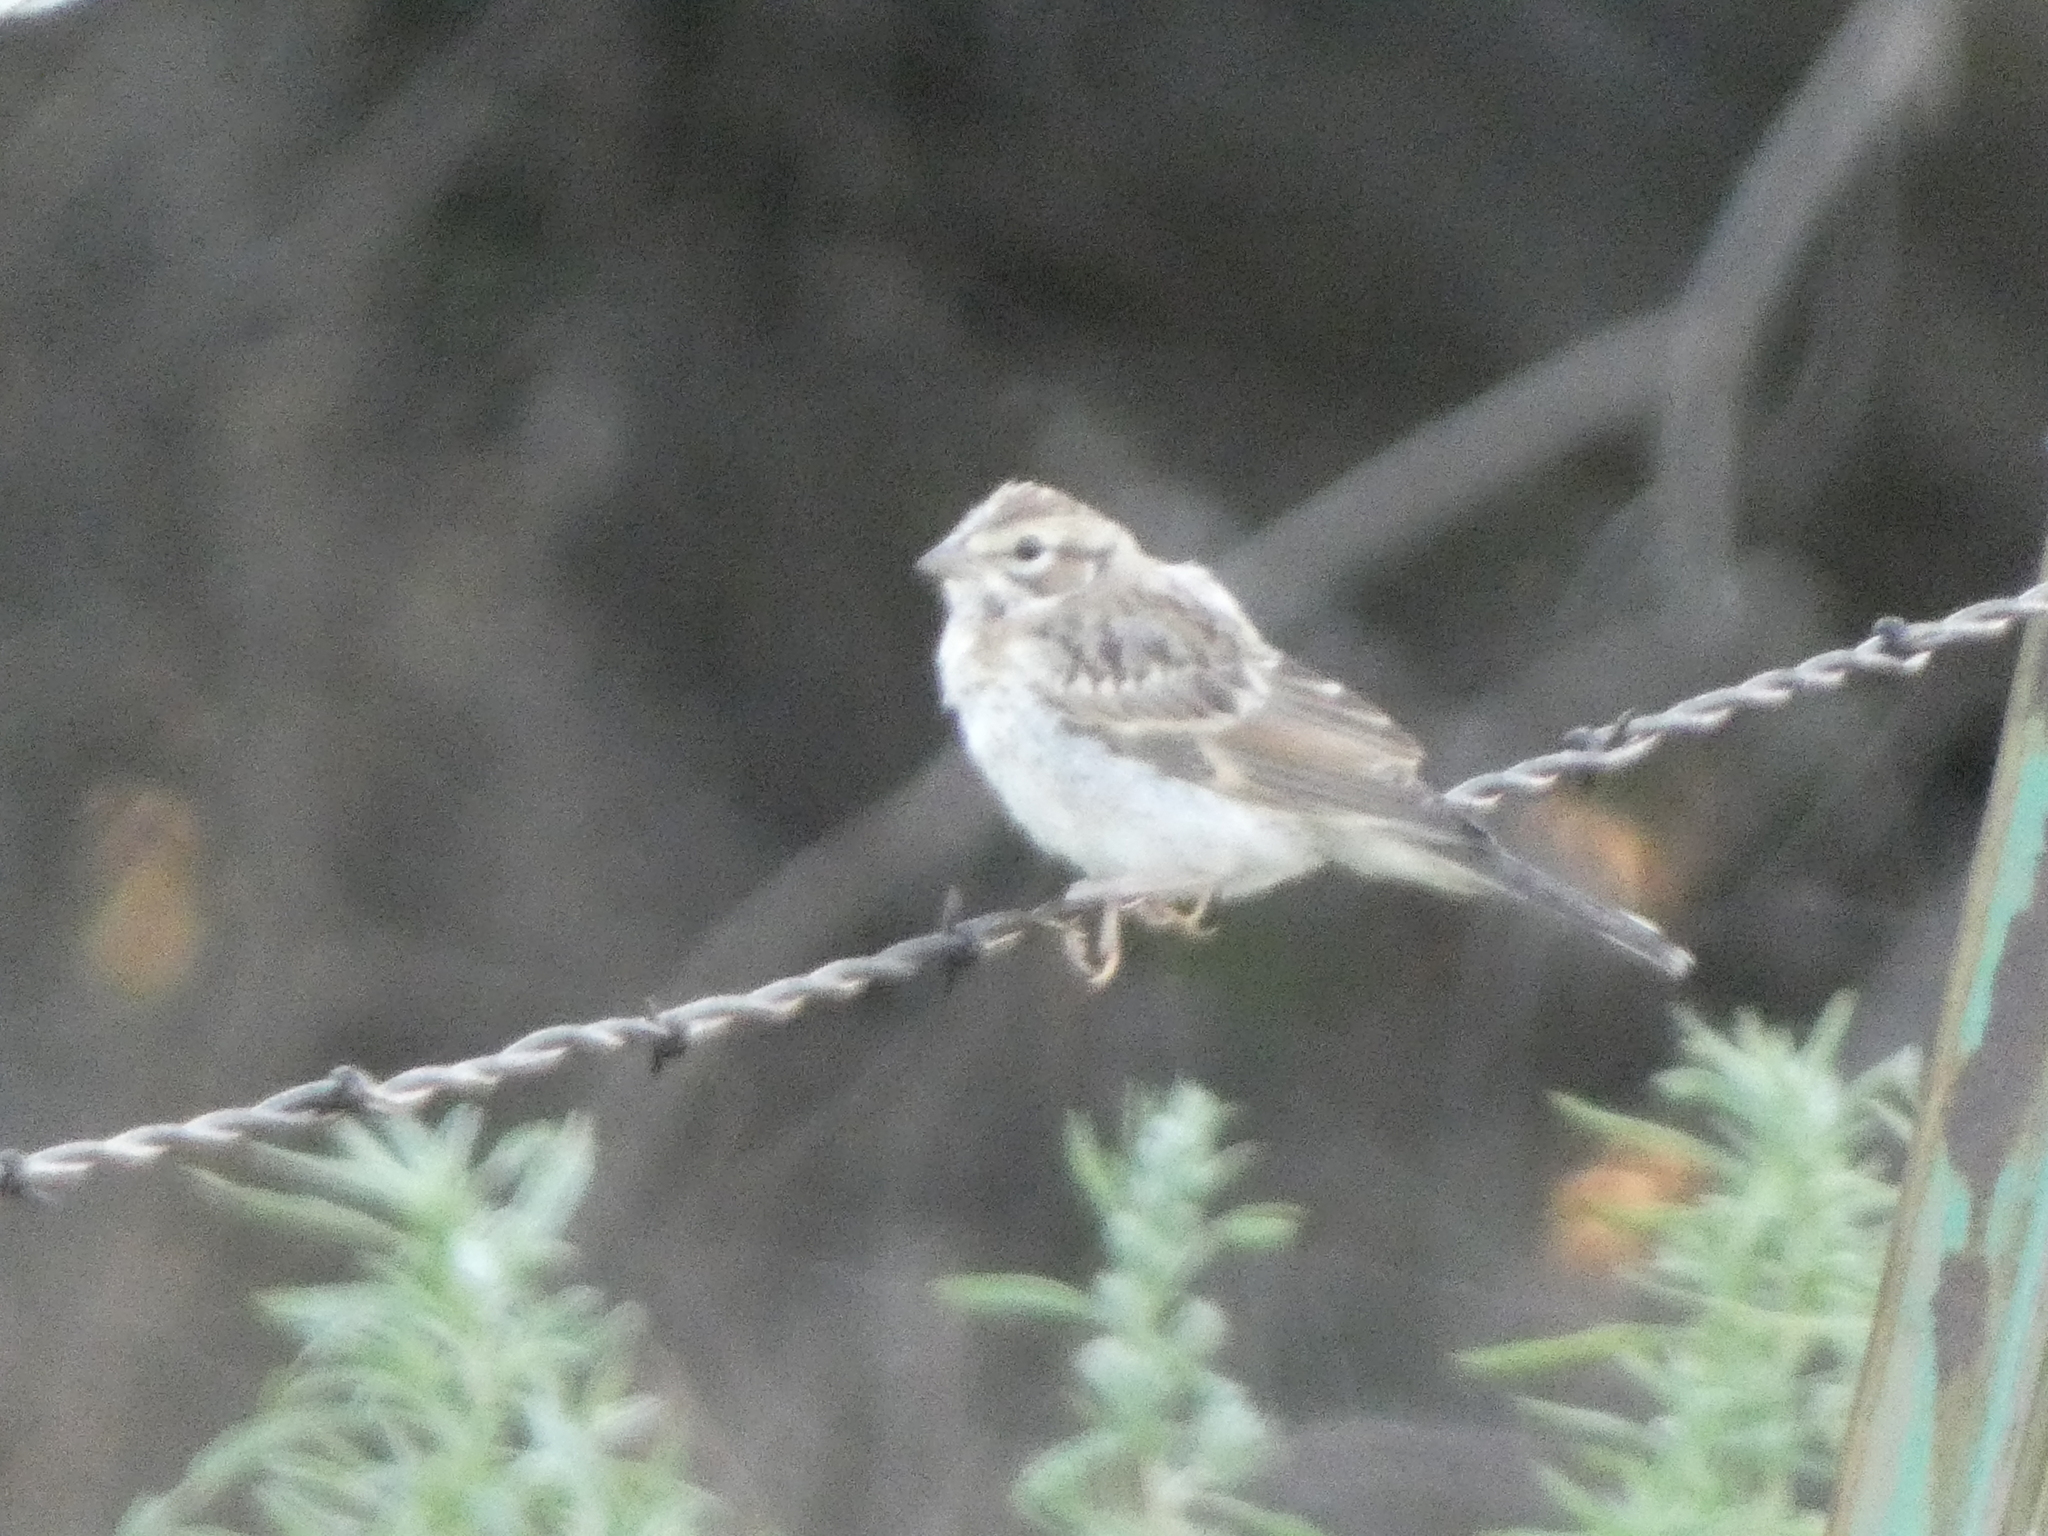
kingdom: Animalia
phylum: Chordata
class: Aves
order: Passeriformes
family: Passerellidae
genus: Chondestes
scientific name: Chondestes grammacus
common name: Lark sparrow
